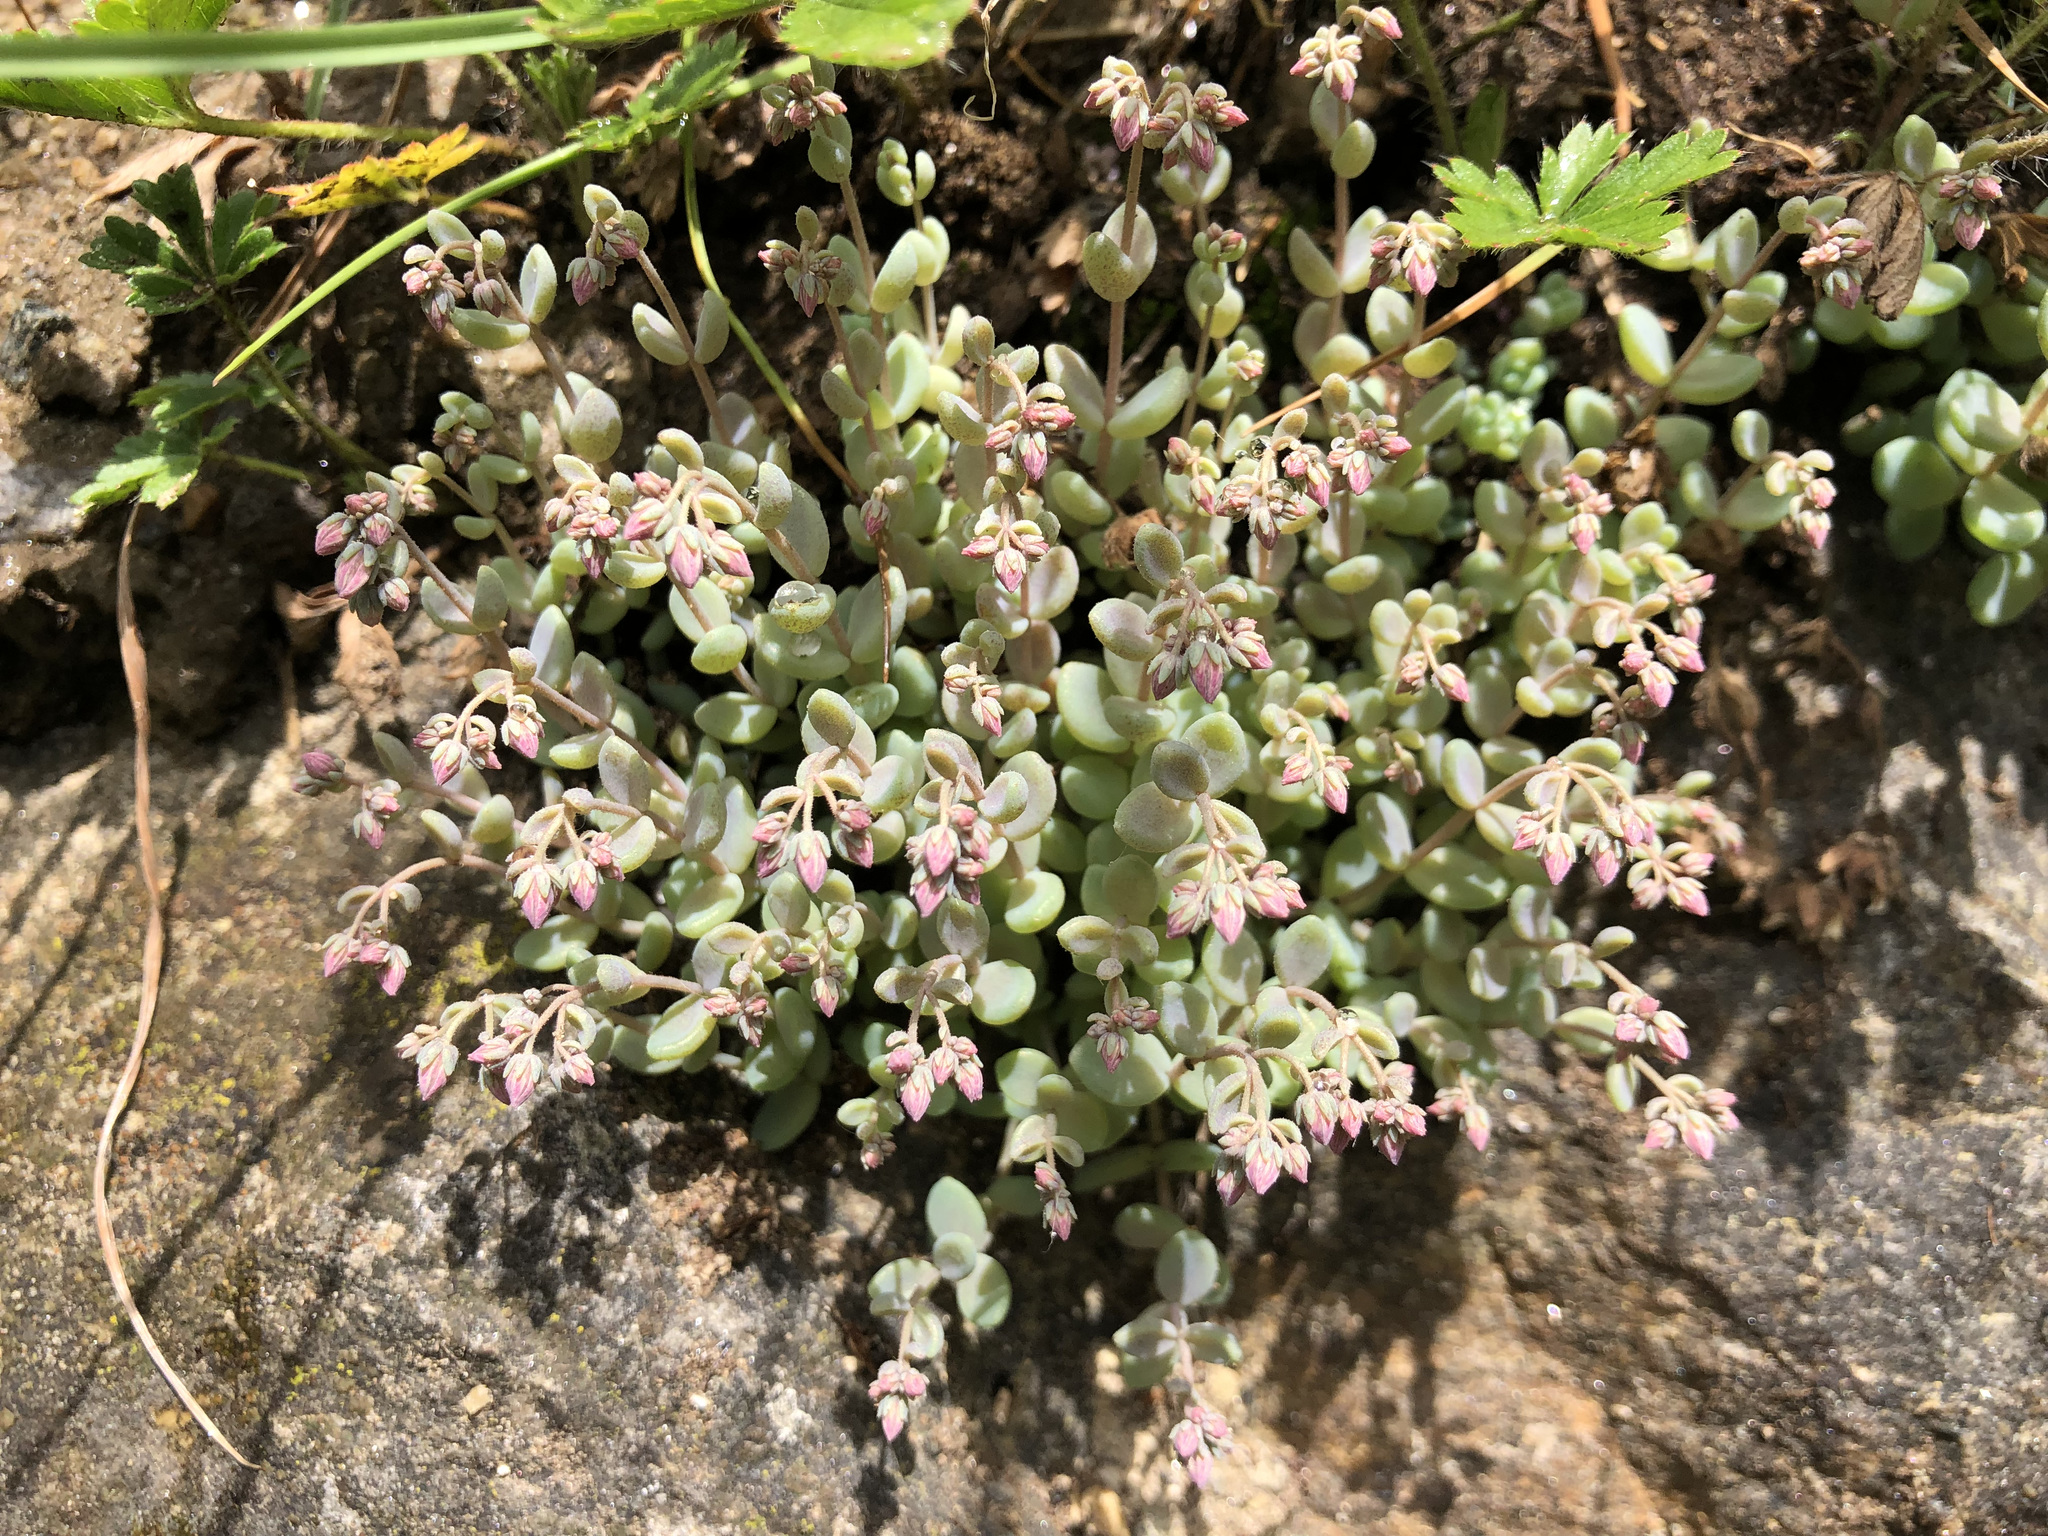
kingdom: Plantae
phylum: Tracheophyta
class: Magnoliopsida
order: Saxifragales
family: Crassulaceae
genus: Sedum
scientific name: Sedum dasyphyllum
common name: Thick-leaf stonecrop
